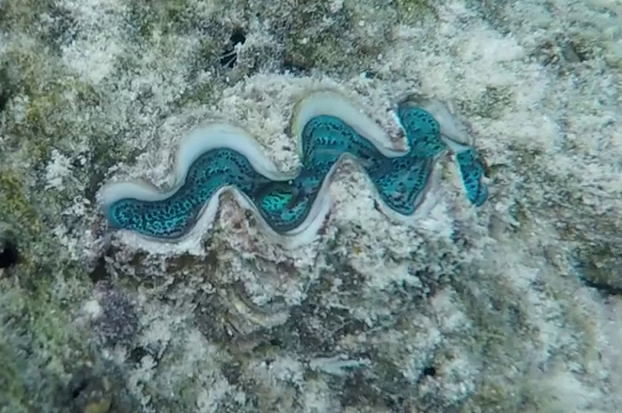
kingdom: Animalia
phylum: Mollusca
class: Bivalvia
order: Cardiida
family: Cardiidae
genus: Tridacna
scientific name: Tridacna maxima
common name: Small giant clam
